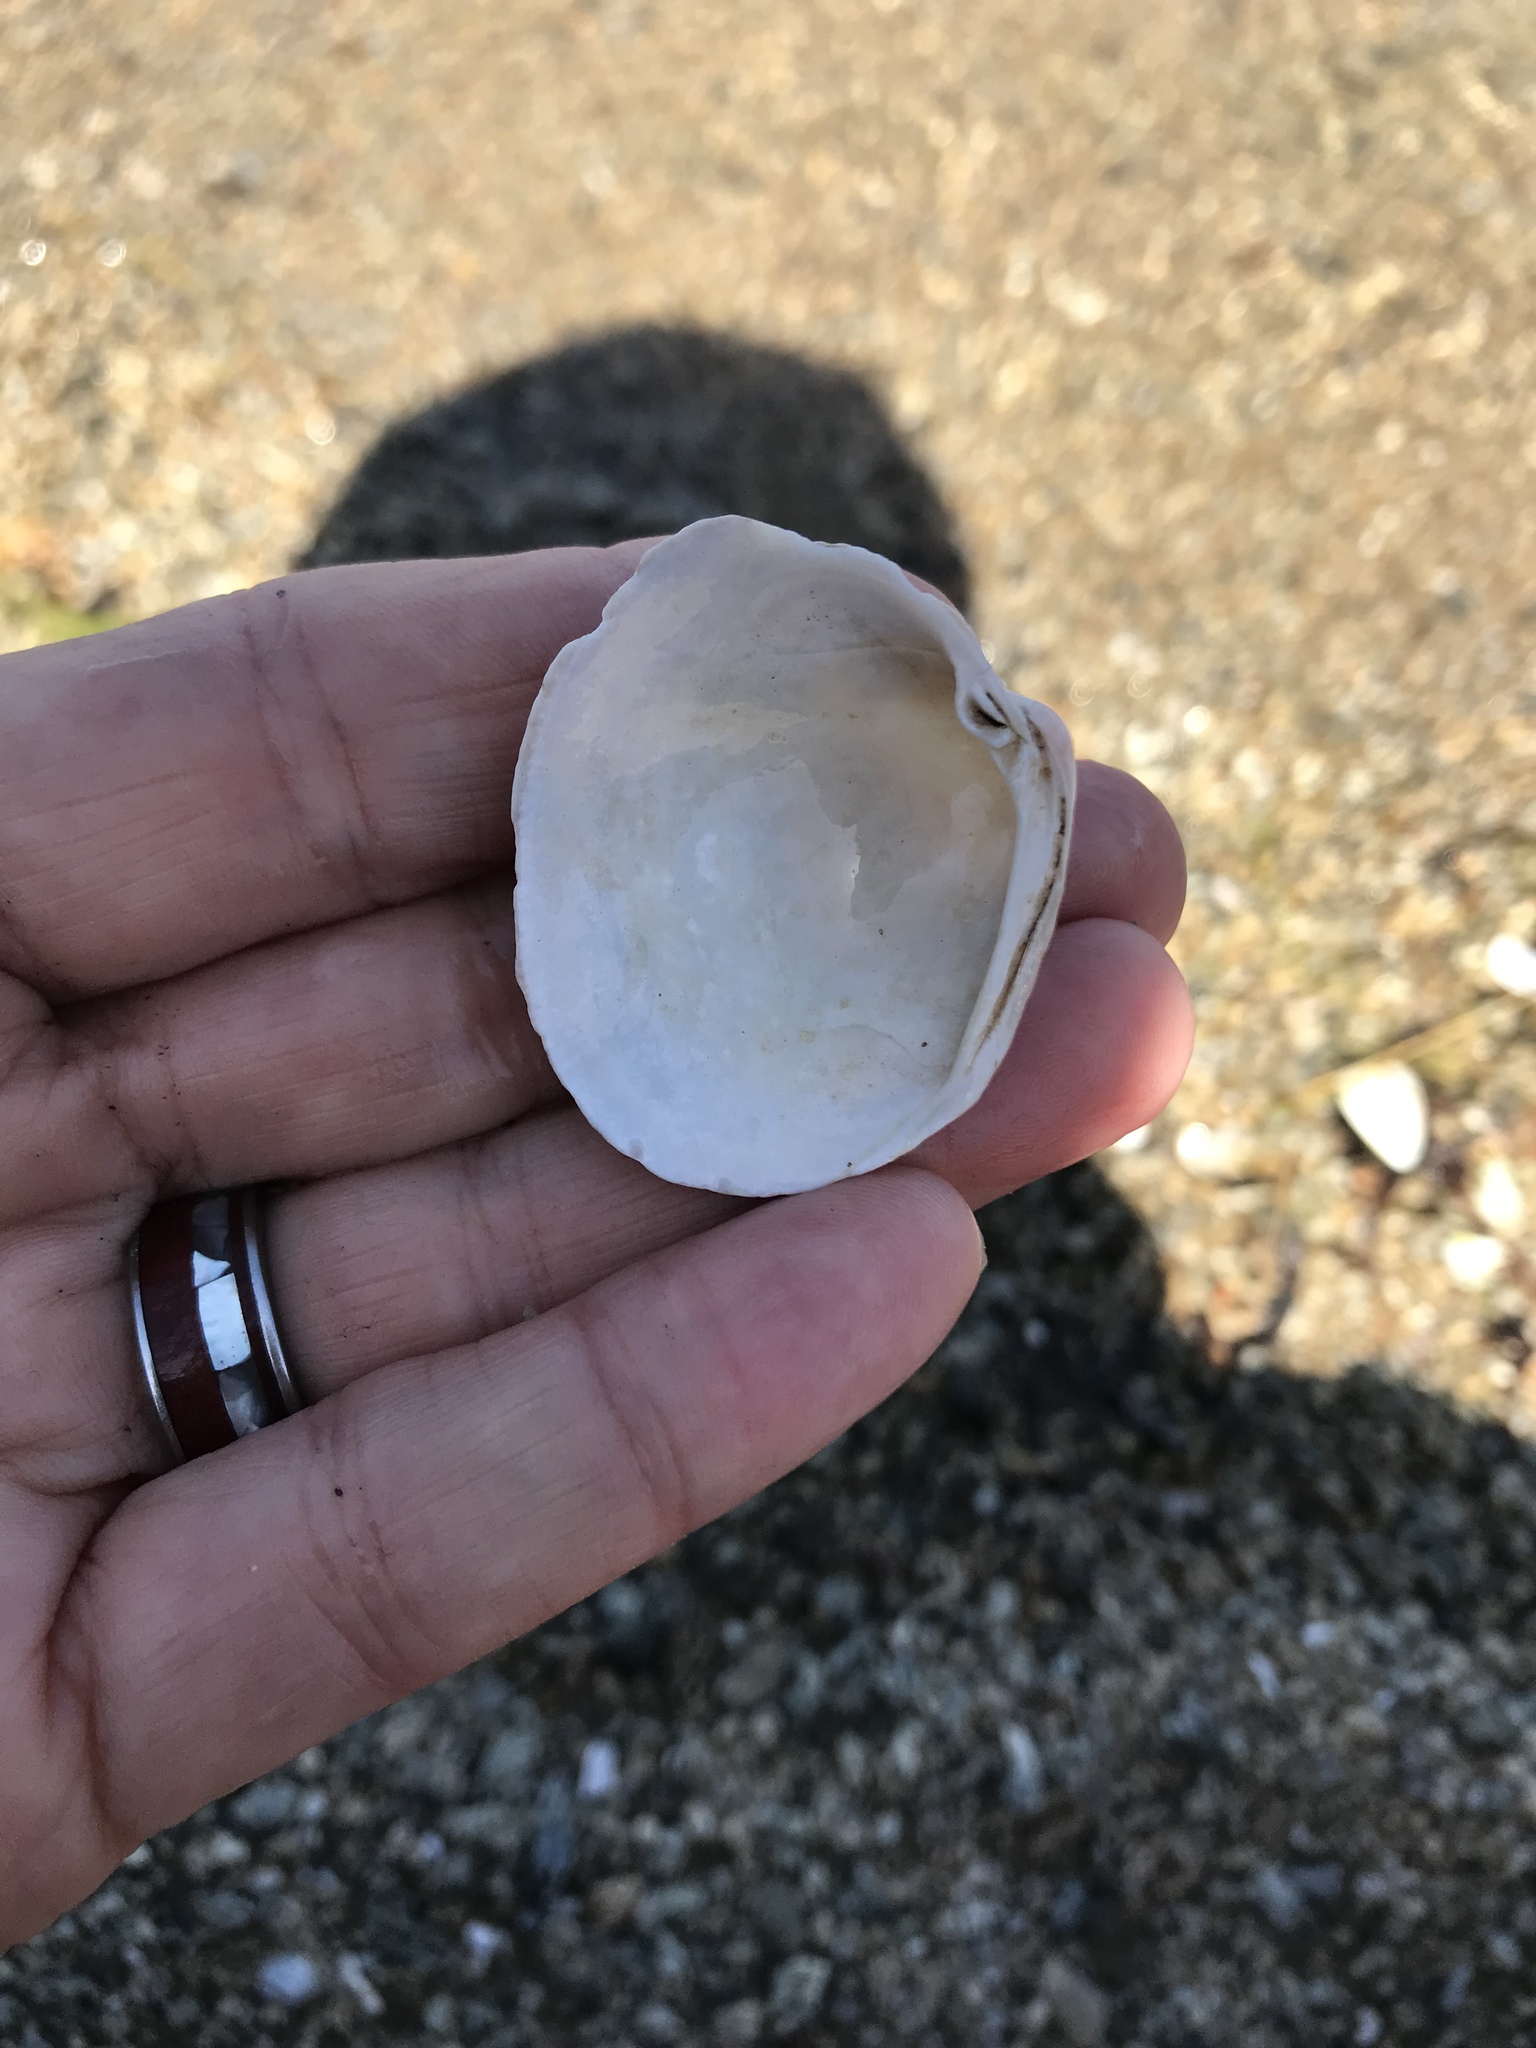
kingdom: Animalia
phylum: Mollusca
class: Bivalvia
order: Venerida
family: Veneridae
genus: Leukoma
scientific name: Leukoma staminea
